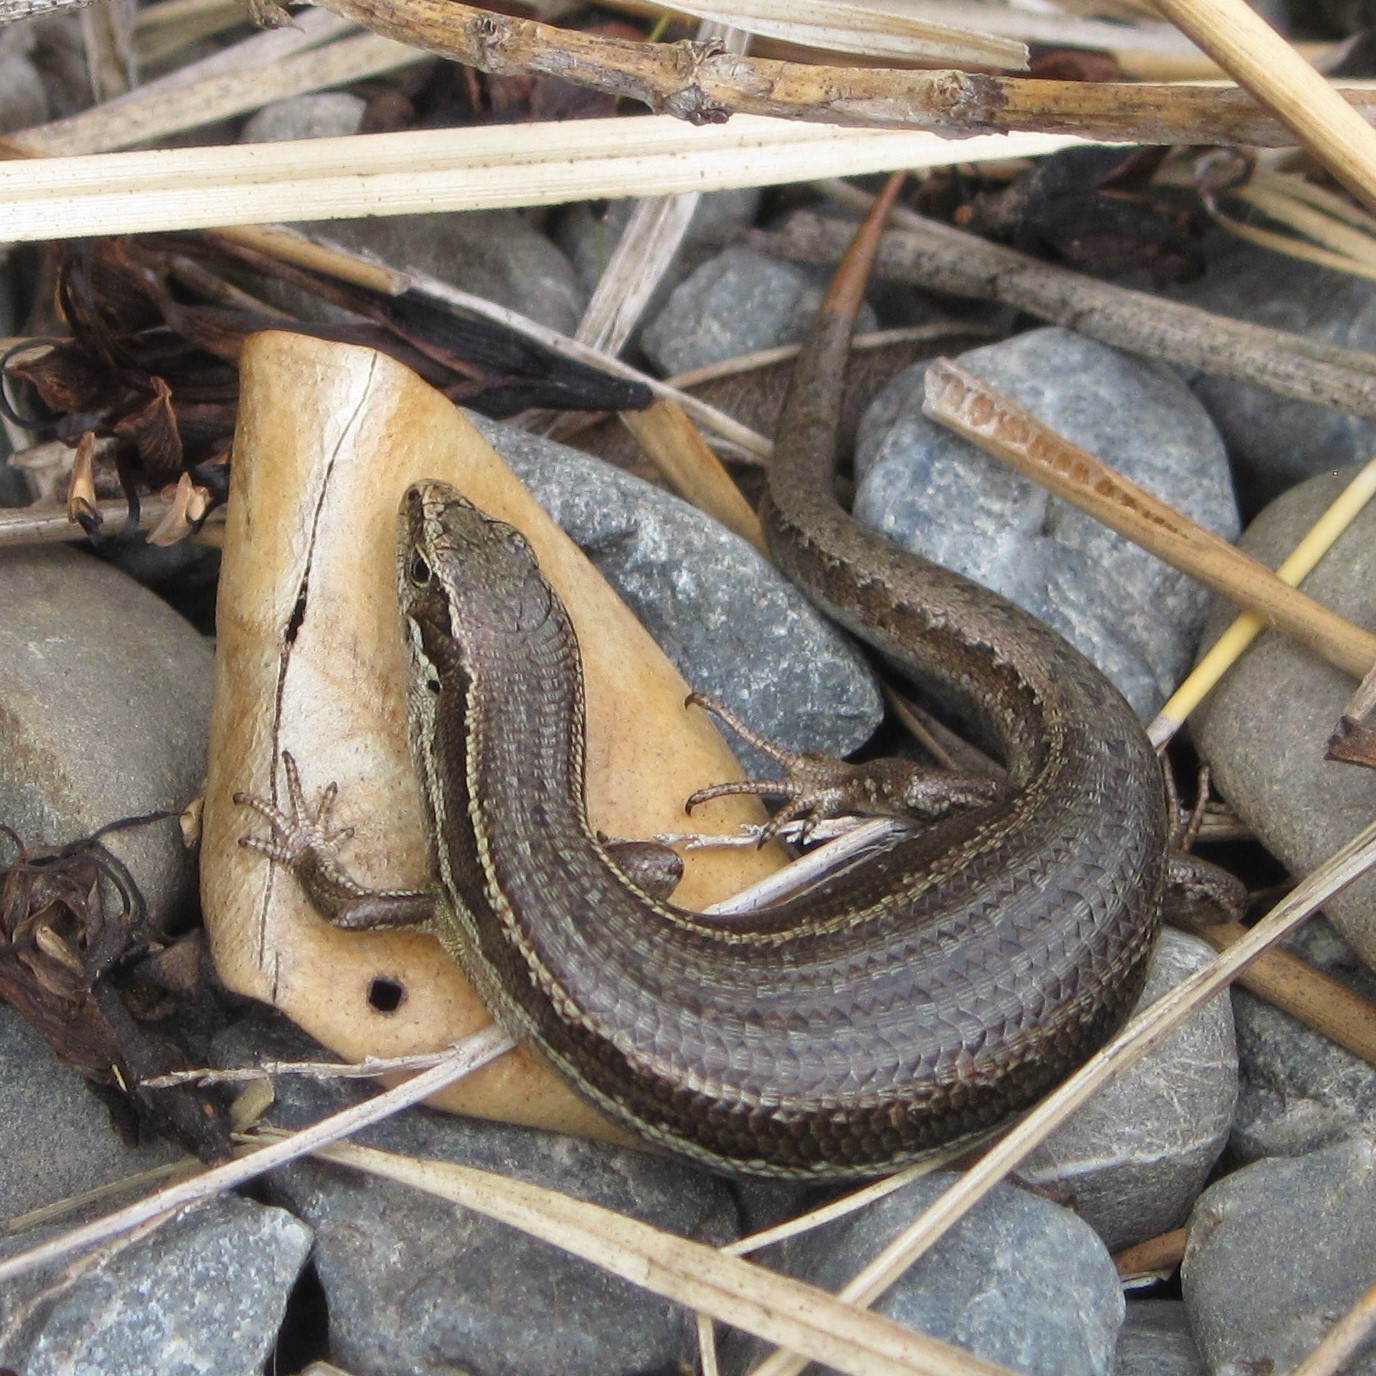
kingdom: Animalia
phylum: Chordata
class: Squamata
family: Scincidae
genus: Oligosoma
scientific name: Oligosoma polychroma
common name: Common new zealand skink
